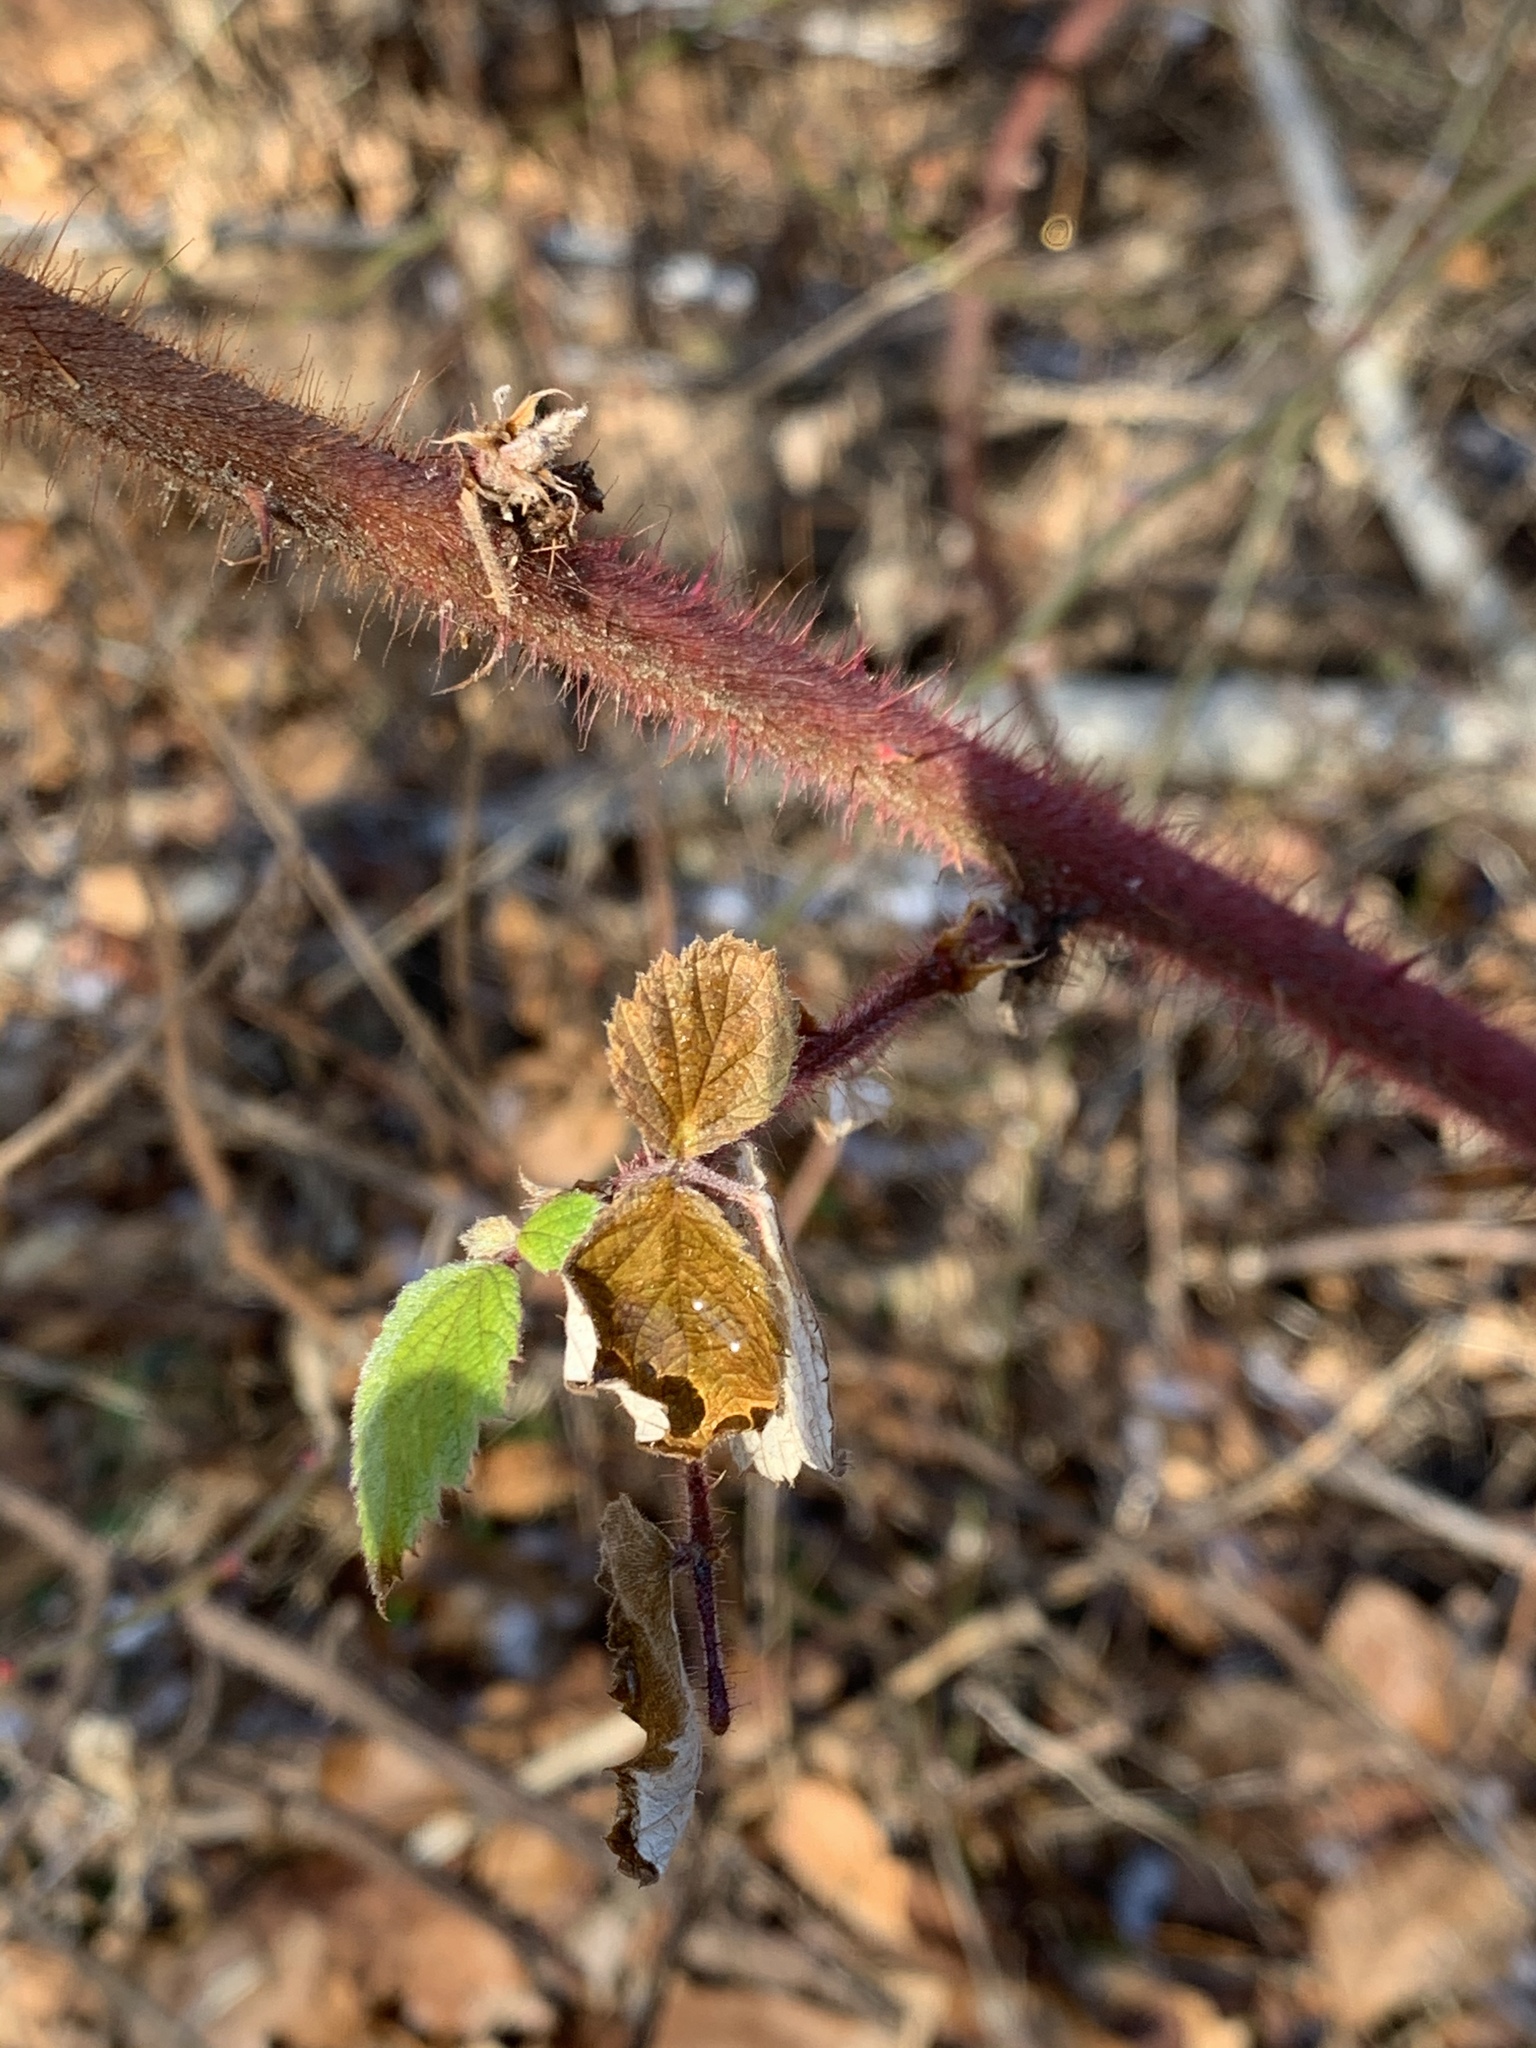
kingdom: Plantae
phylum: Tracheophyta
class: Magnoliopsida
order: Rosales
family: Rosaceae
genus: Rubus
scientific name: Rubus phoenicolasius
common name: Japanese wineberry
